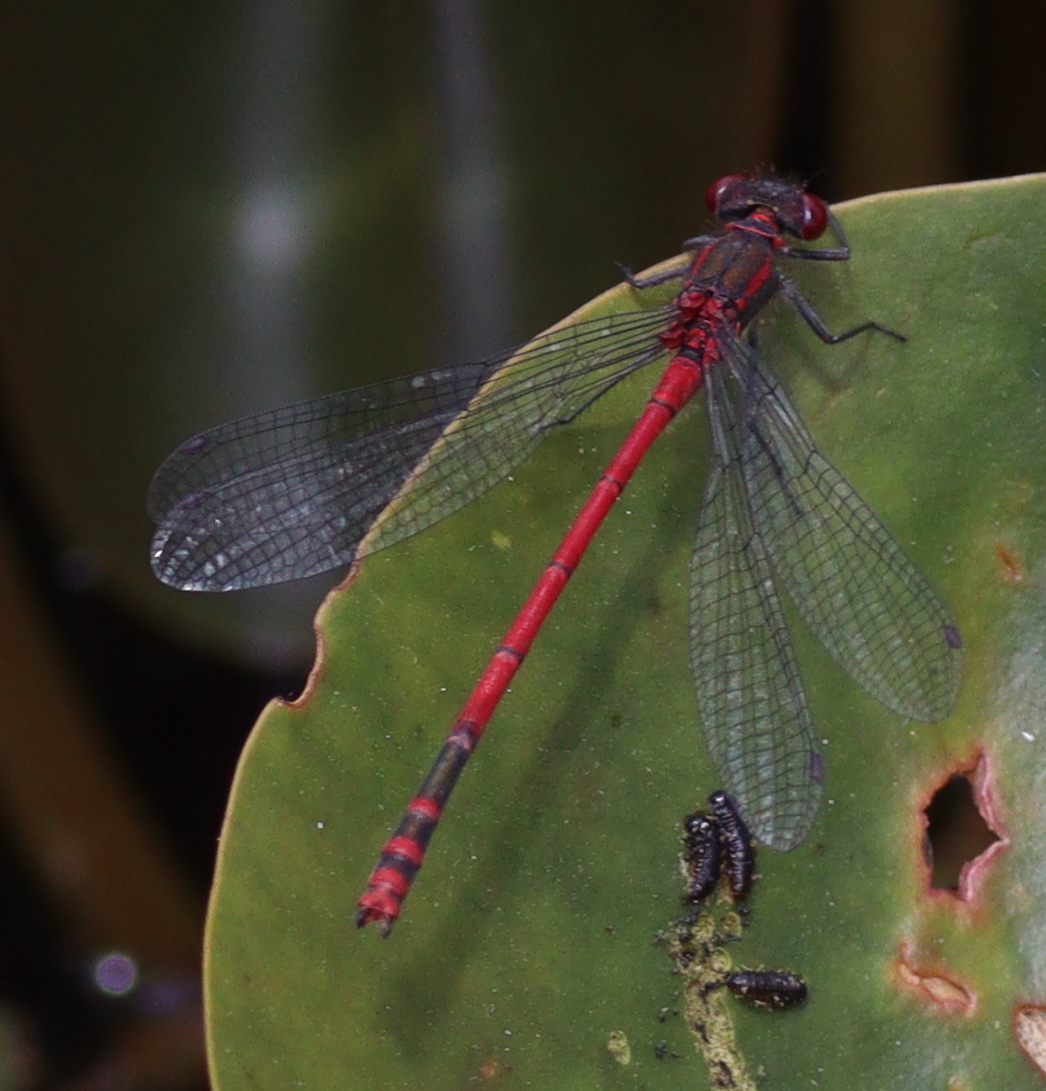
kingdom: Animalia
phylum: Arthropoda
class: Insecta
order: Odonata
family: Coenagrionidae
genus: Pyrrhosoma
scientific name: Pyrrhosoma nymphula
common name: Large red damsel
